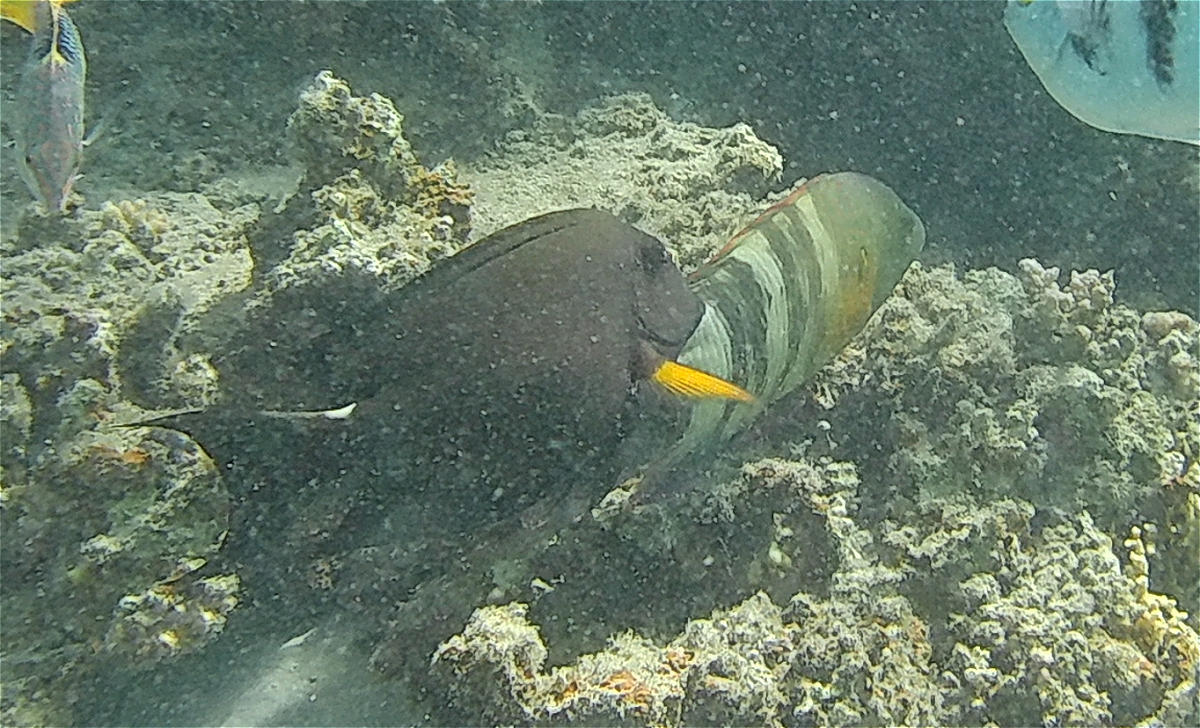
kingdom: Animalia
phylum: Chordata
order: Perciformes
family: Acanthuridae
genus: Ctenochaetus
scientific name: Ctenochaetus striatus
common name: Bristle-toothed surgeonfish
